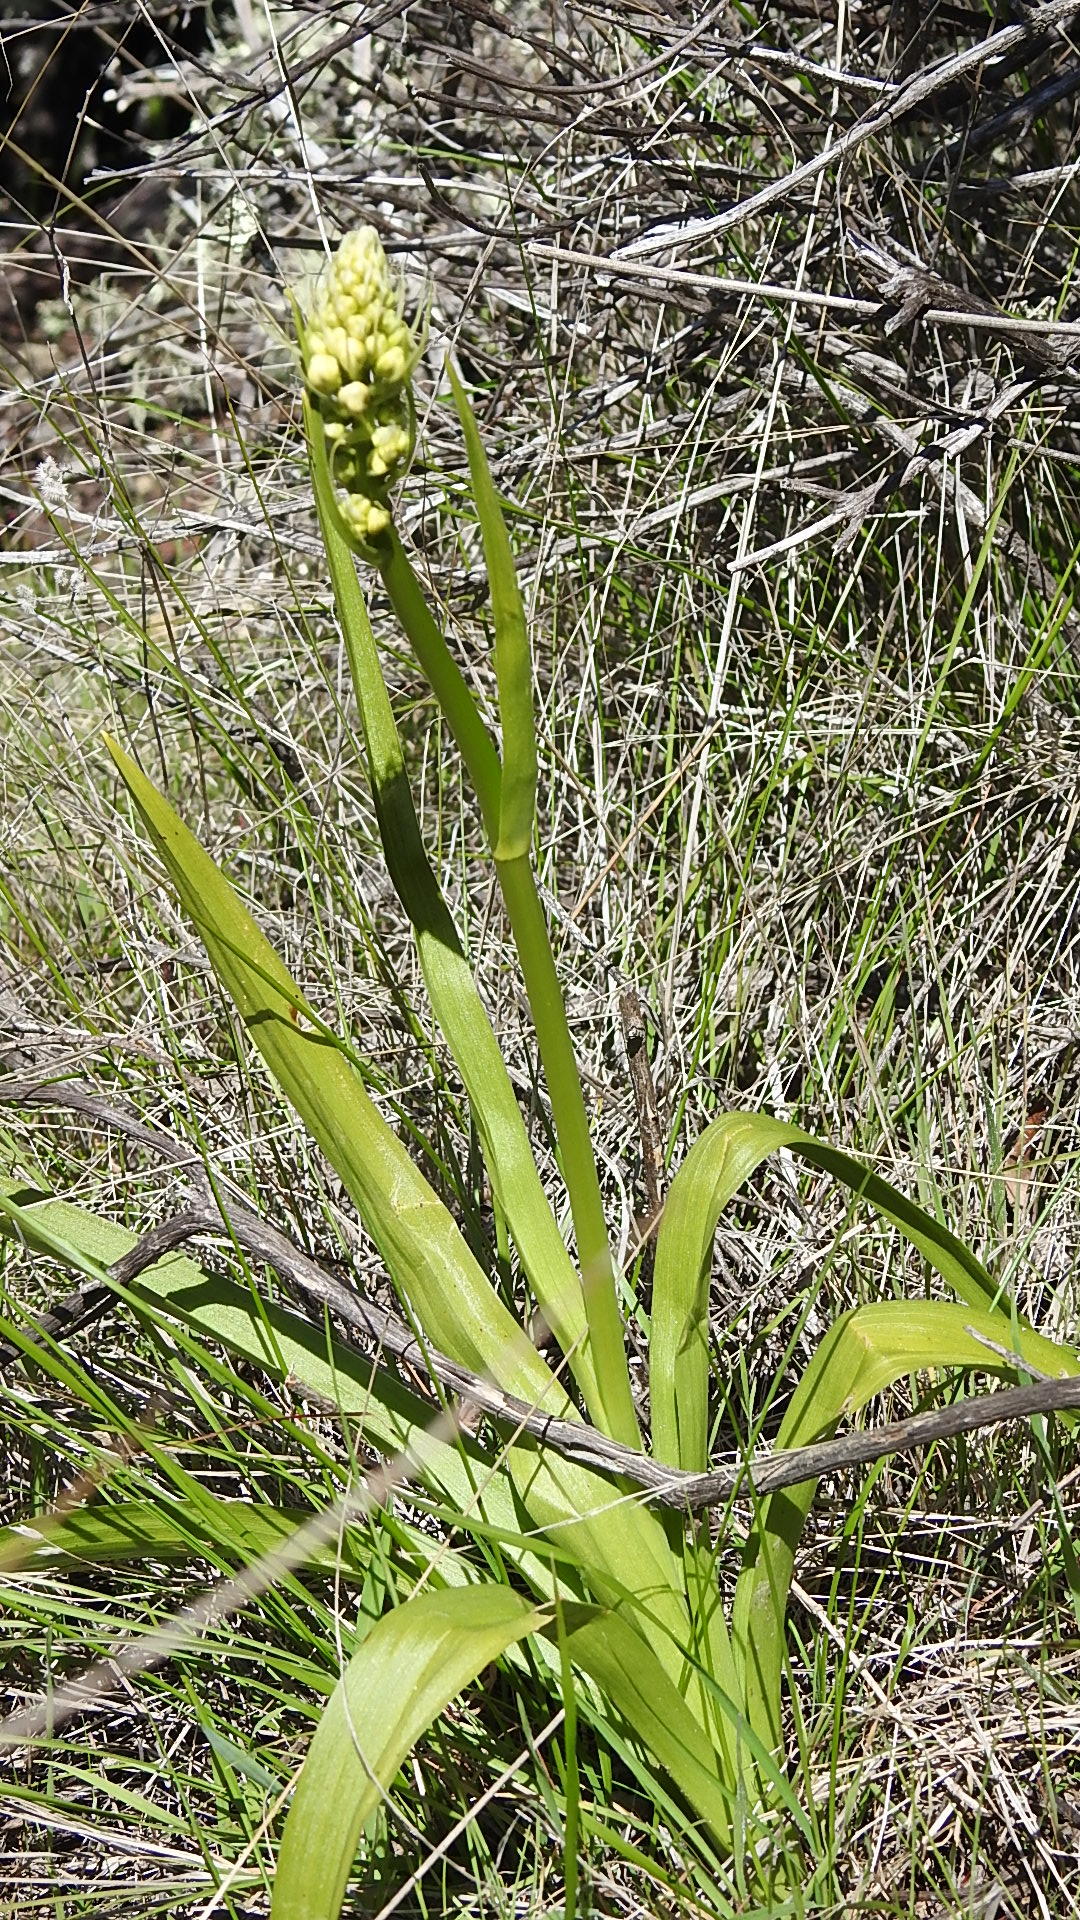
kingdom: Plantae
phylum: Tracheophyta
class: Liliopsida
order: Liliales
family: Melanthiaceae
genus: Toxicoscordion
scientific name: Toxicoscordion fremontii
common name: Fremont's death camas
